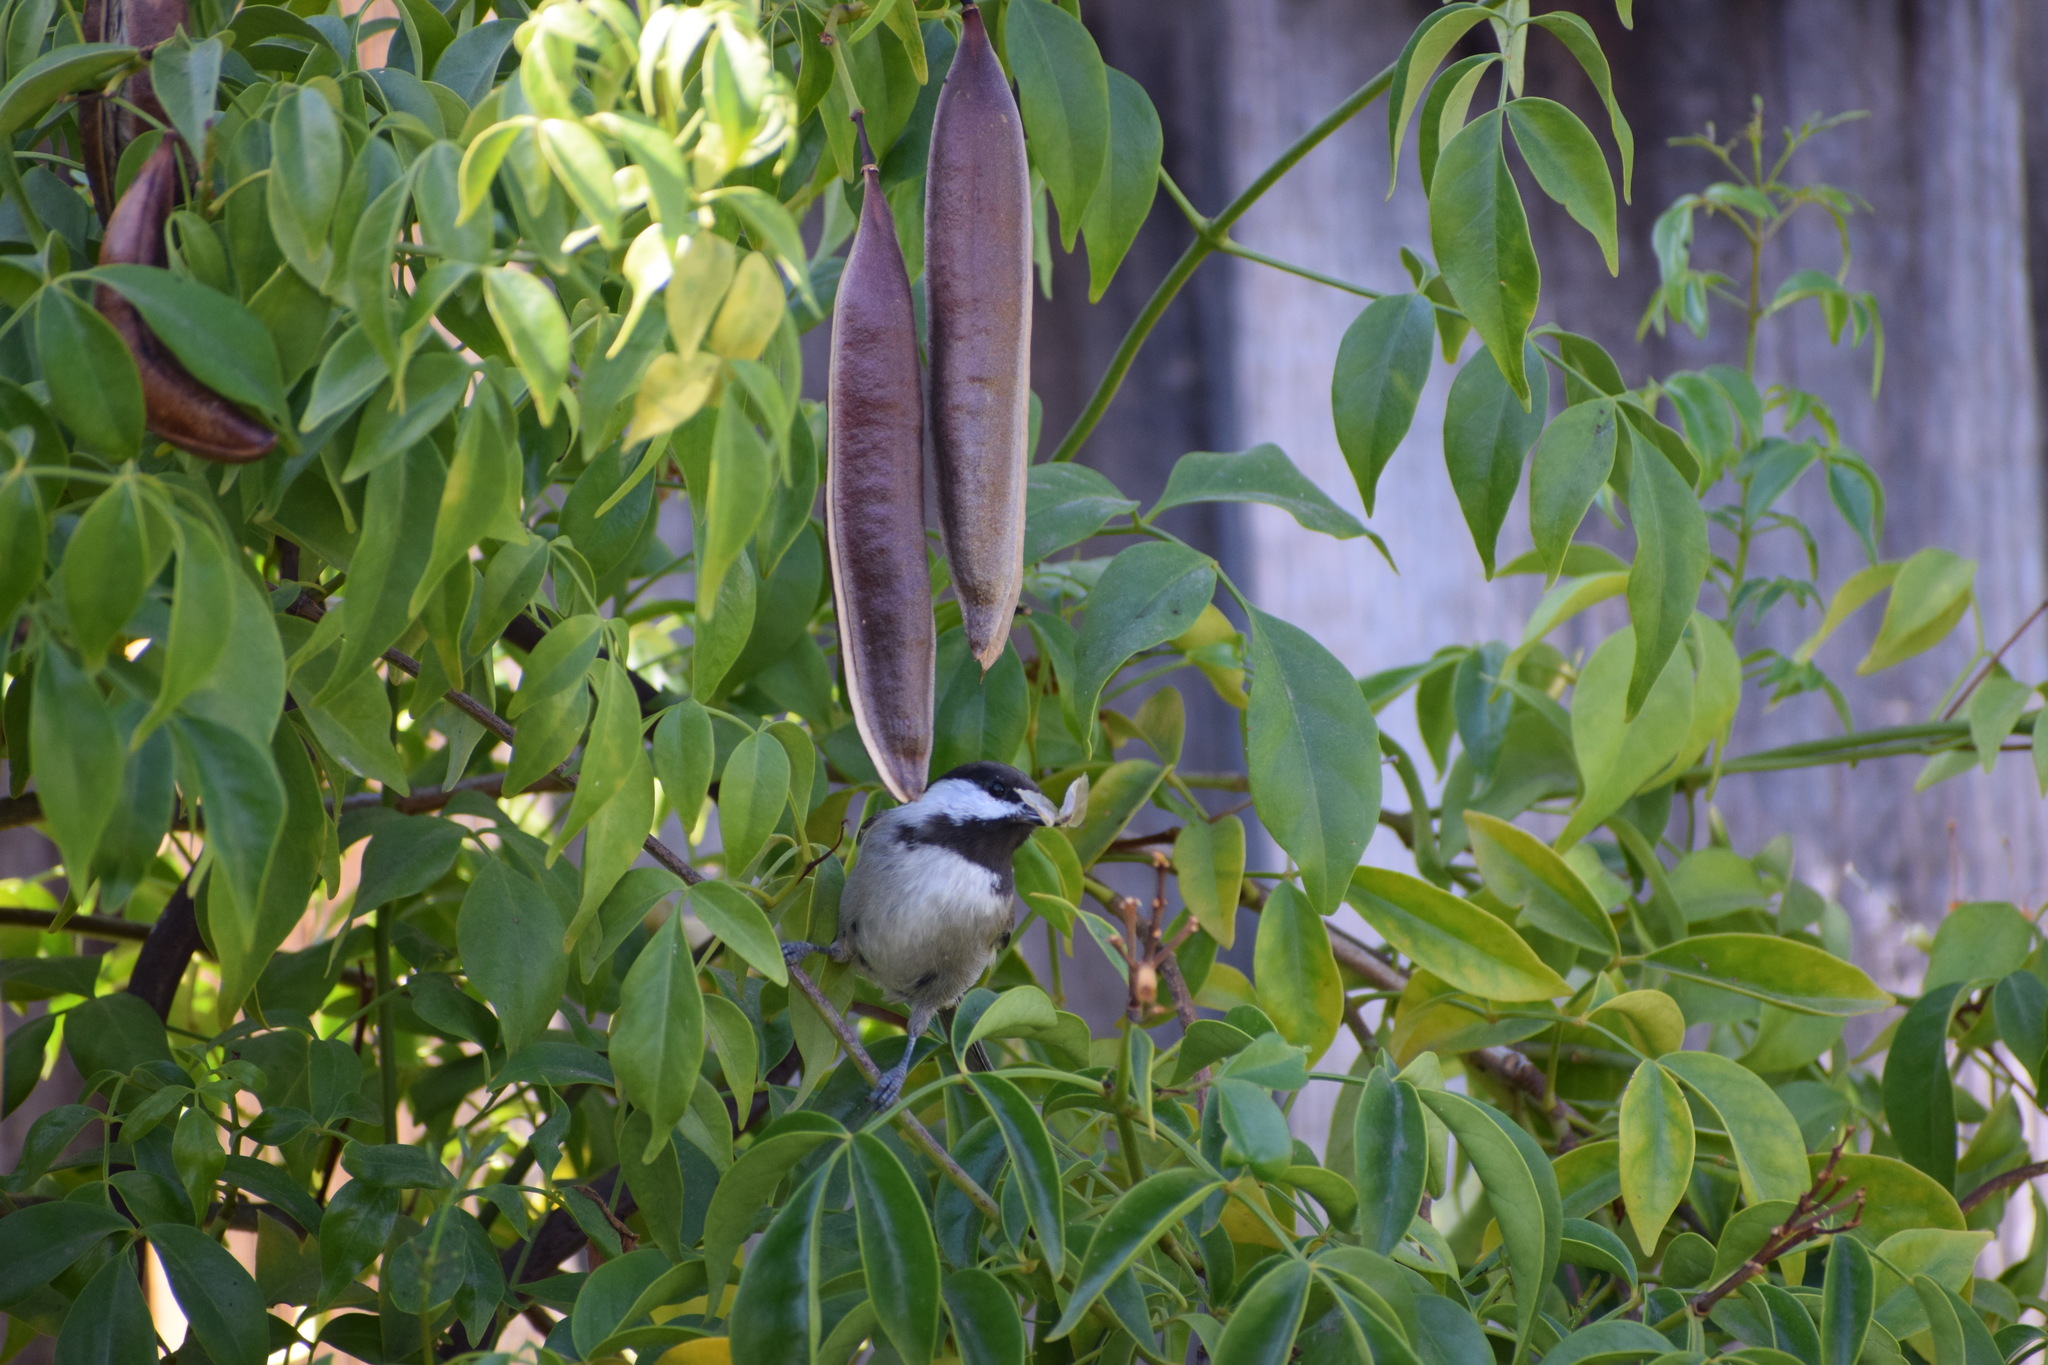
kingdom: Animalia
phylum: Chordata
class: Aves
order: Passeriformes
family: Paridae
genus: Poecile
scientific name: Poecile rufescens
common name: Chestnut-backed chickadee
